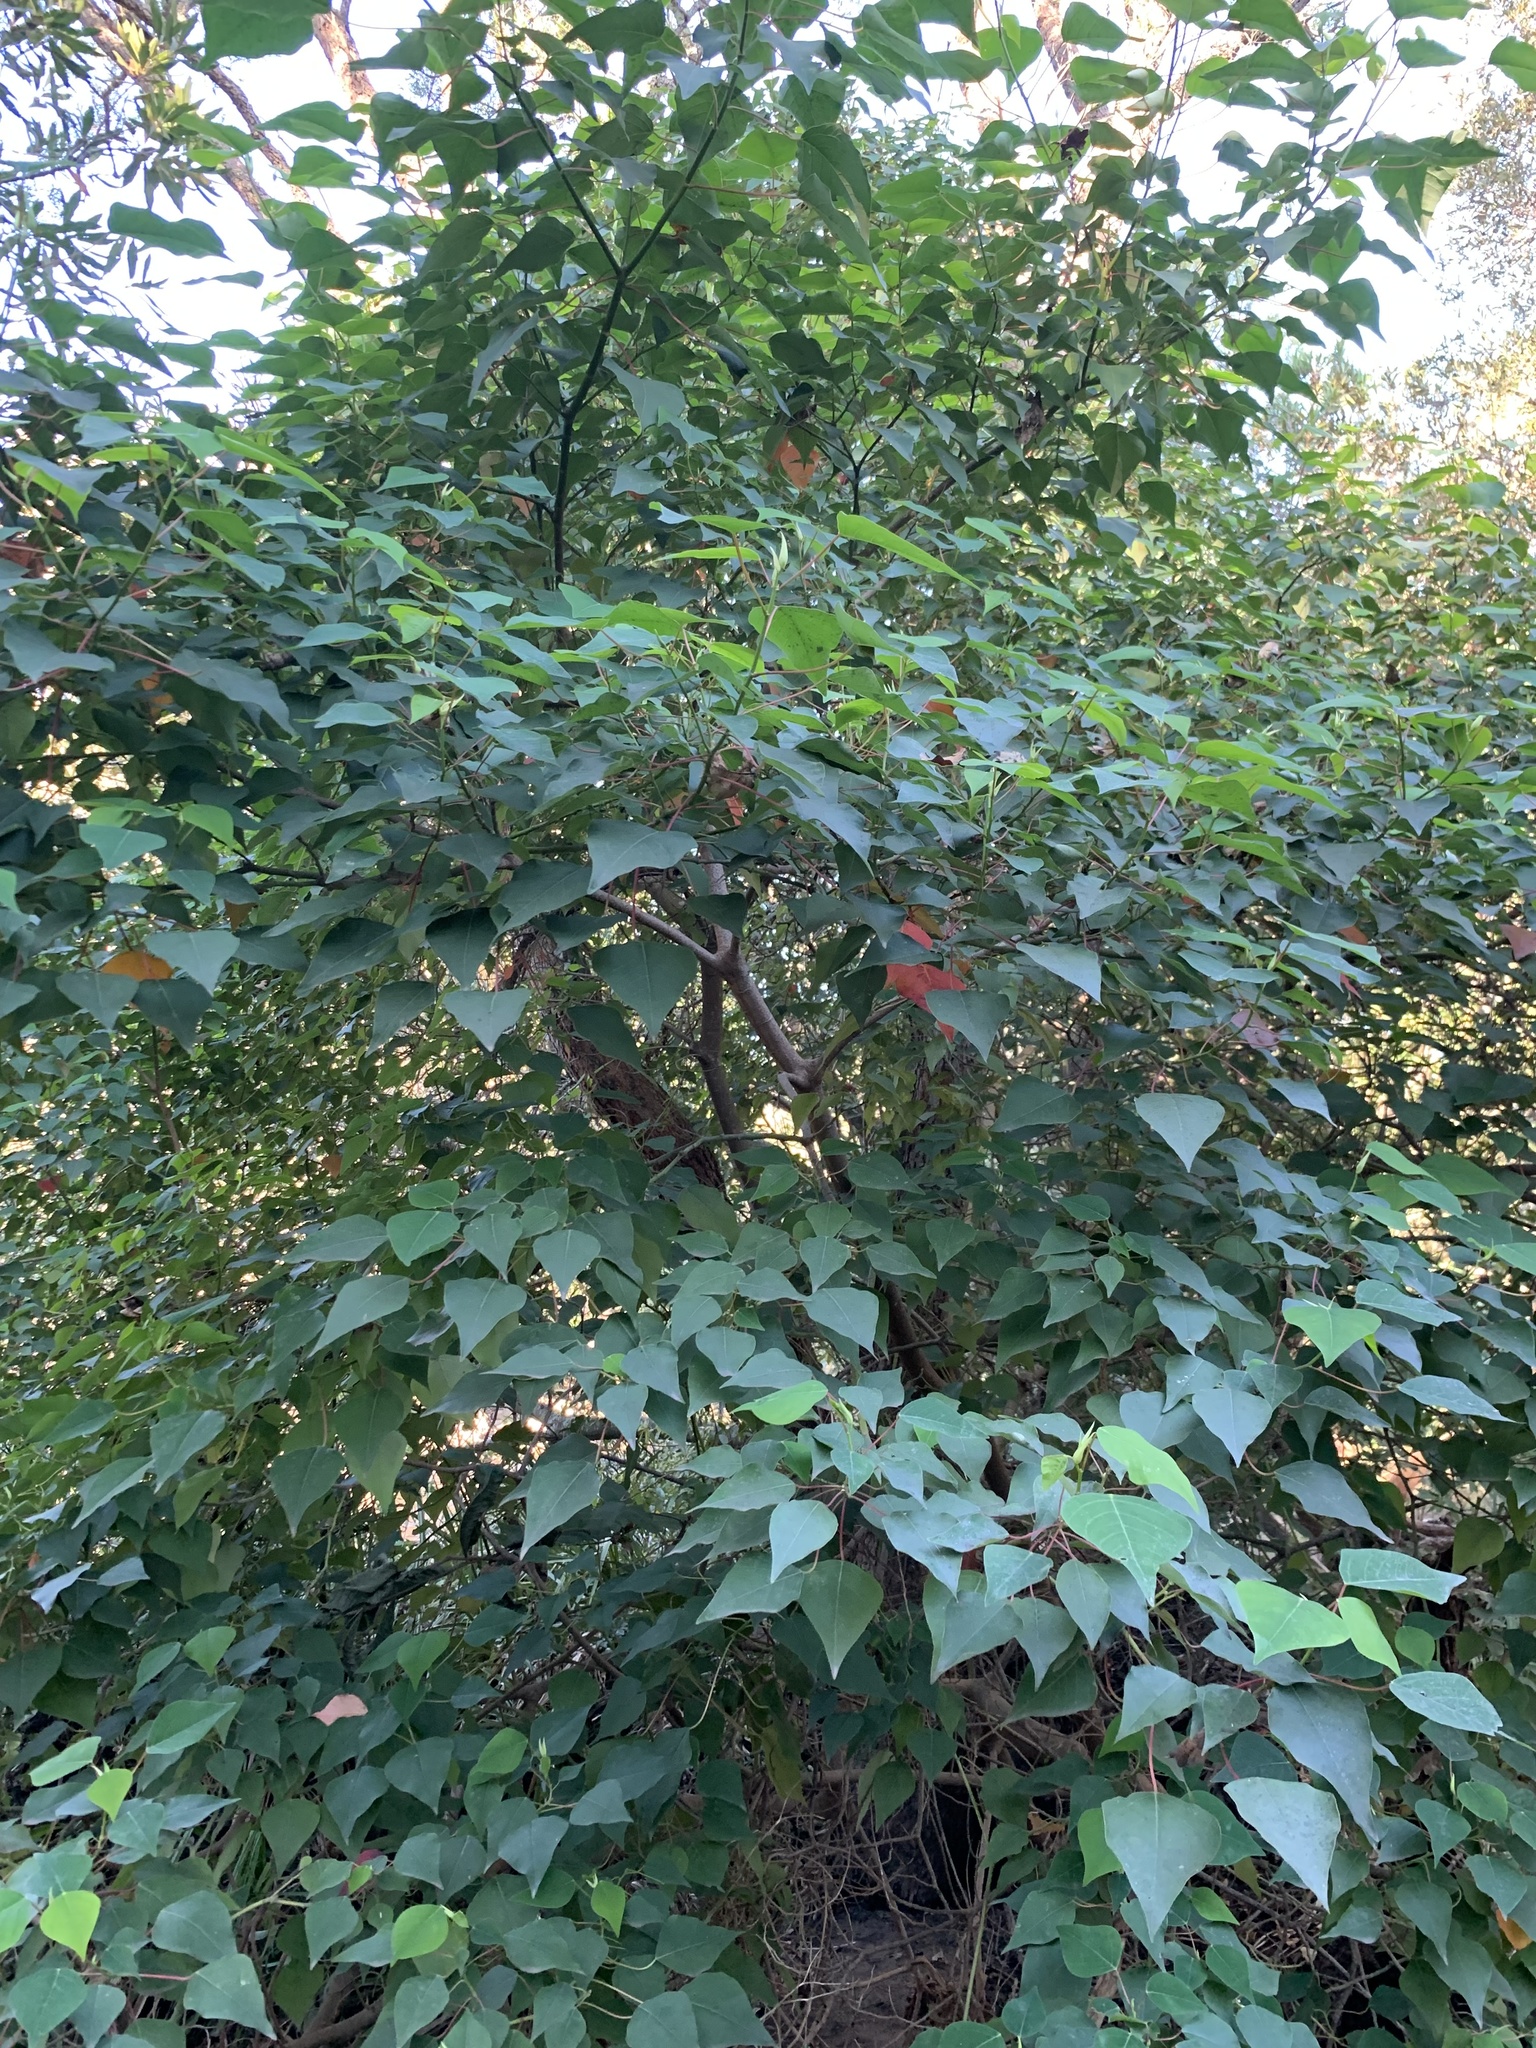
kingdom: Plantae
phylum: Tracheophyta
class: Magnoliopsida
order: Malpighiales
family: Euphorbiaceae
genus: Homalanthus
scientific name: Homalanthus populifolius
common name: Queensland poplar
